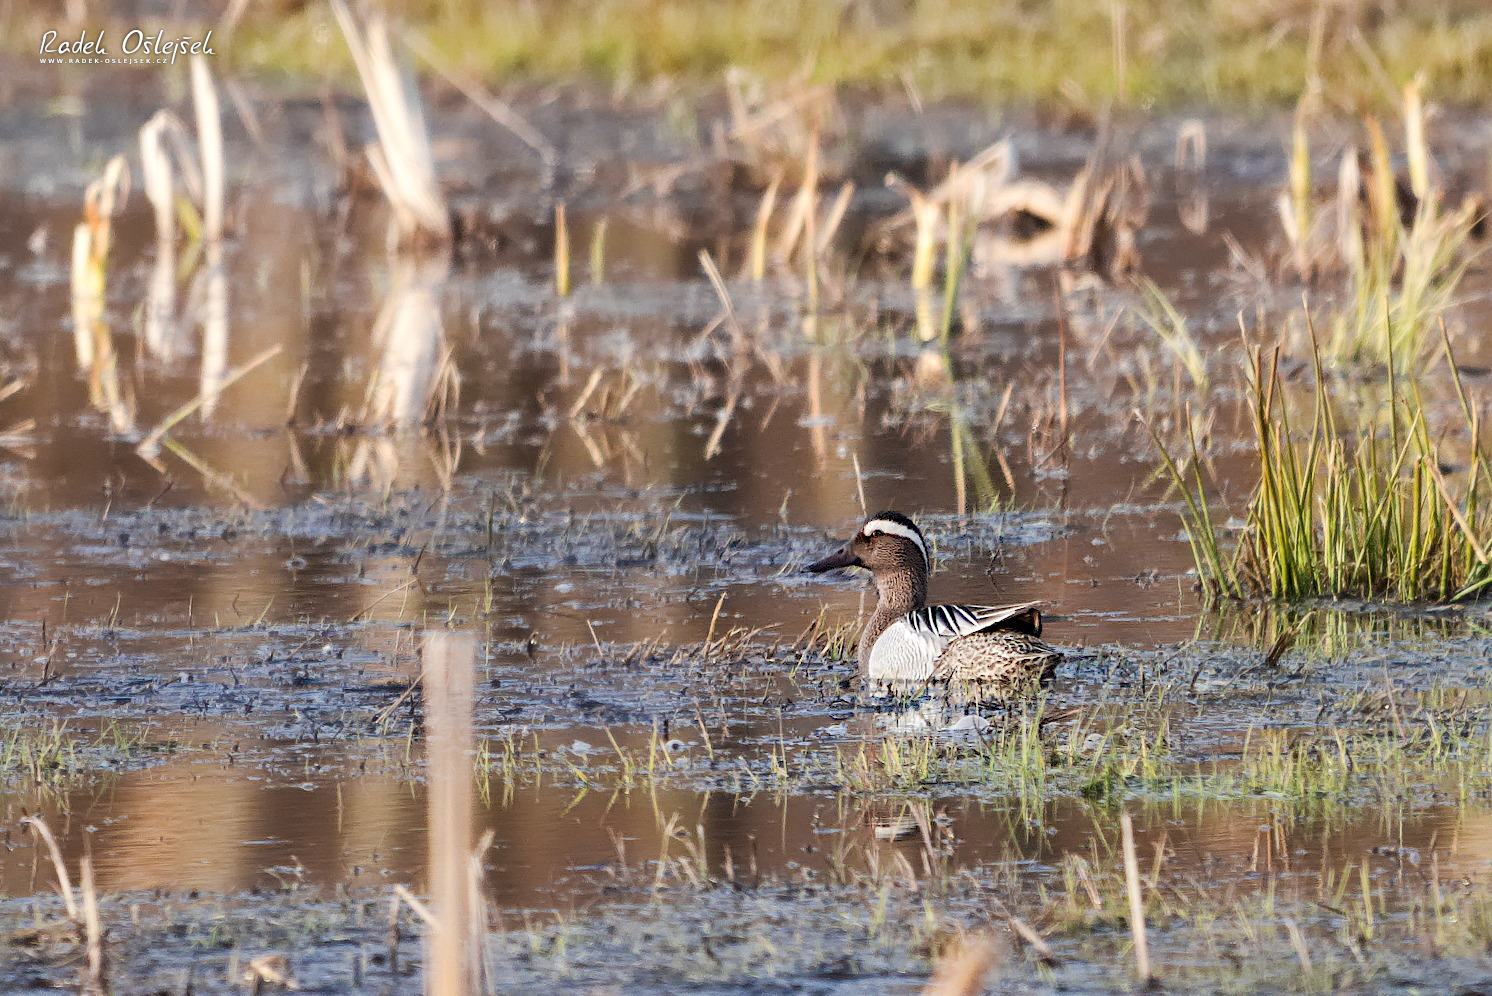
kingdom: Animalia
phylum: Chordata
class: Aves
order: Anseriformes
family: Anatidae
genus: Spatula
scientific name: Spatula querquedula
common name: Garganey
